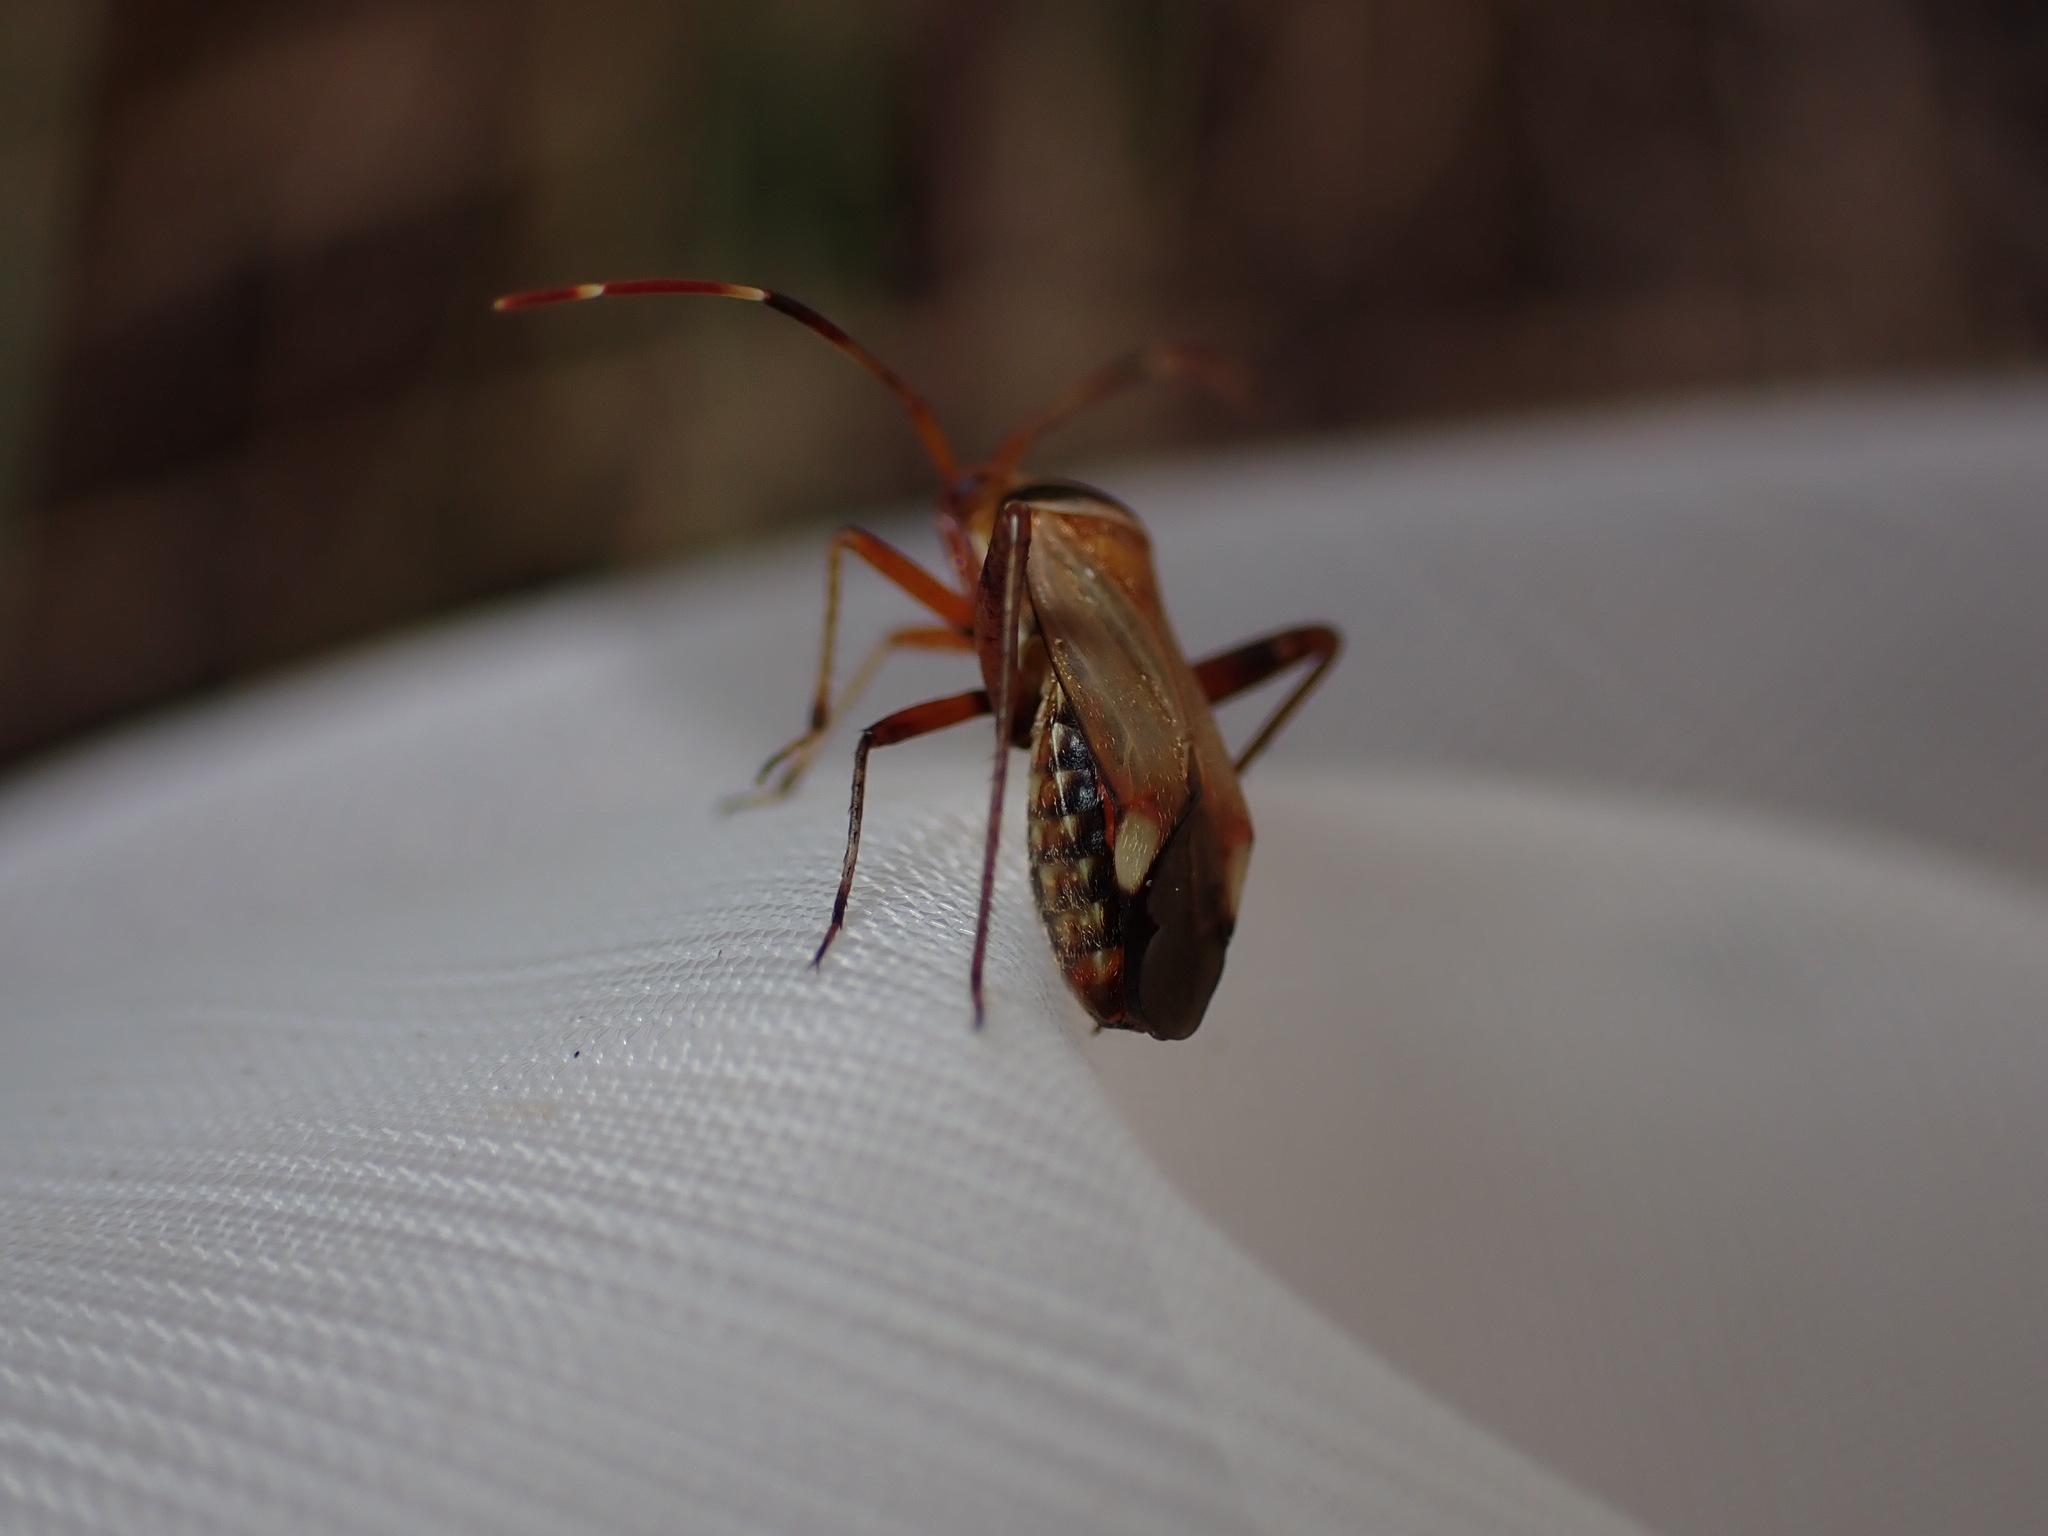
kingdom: Animalia
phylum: Arthropoda
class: Insecta
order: Hemiptera
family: Miridae
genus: Adelphocoris
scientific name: Adelphocoris vandalicus
